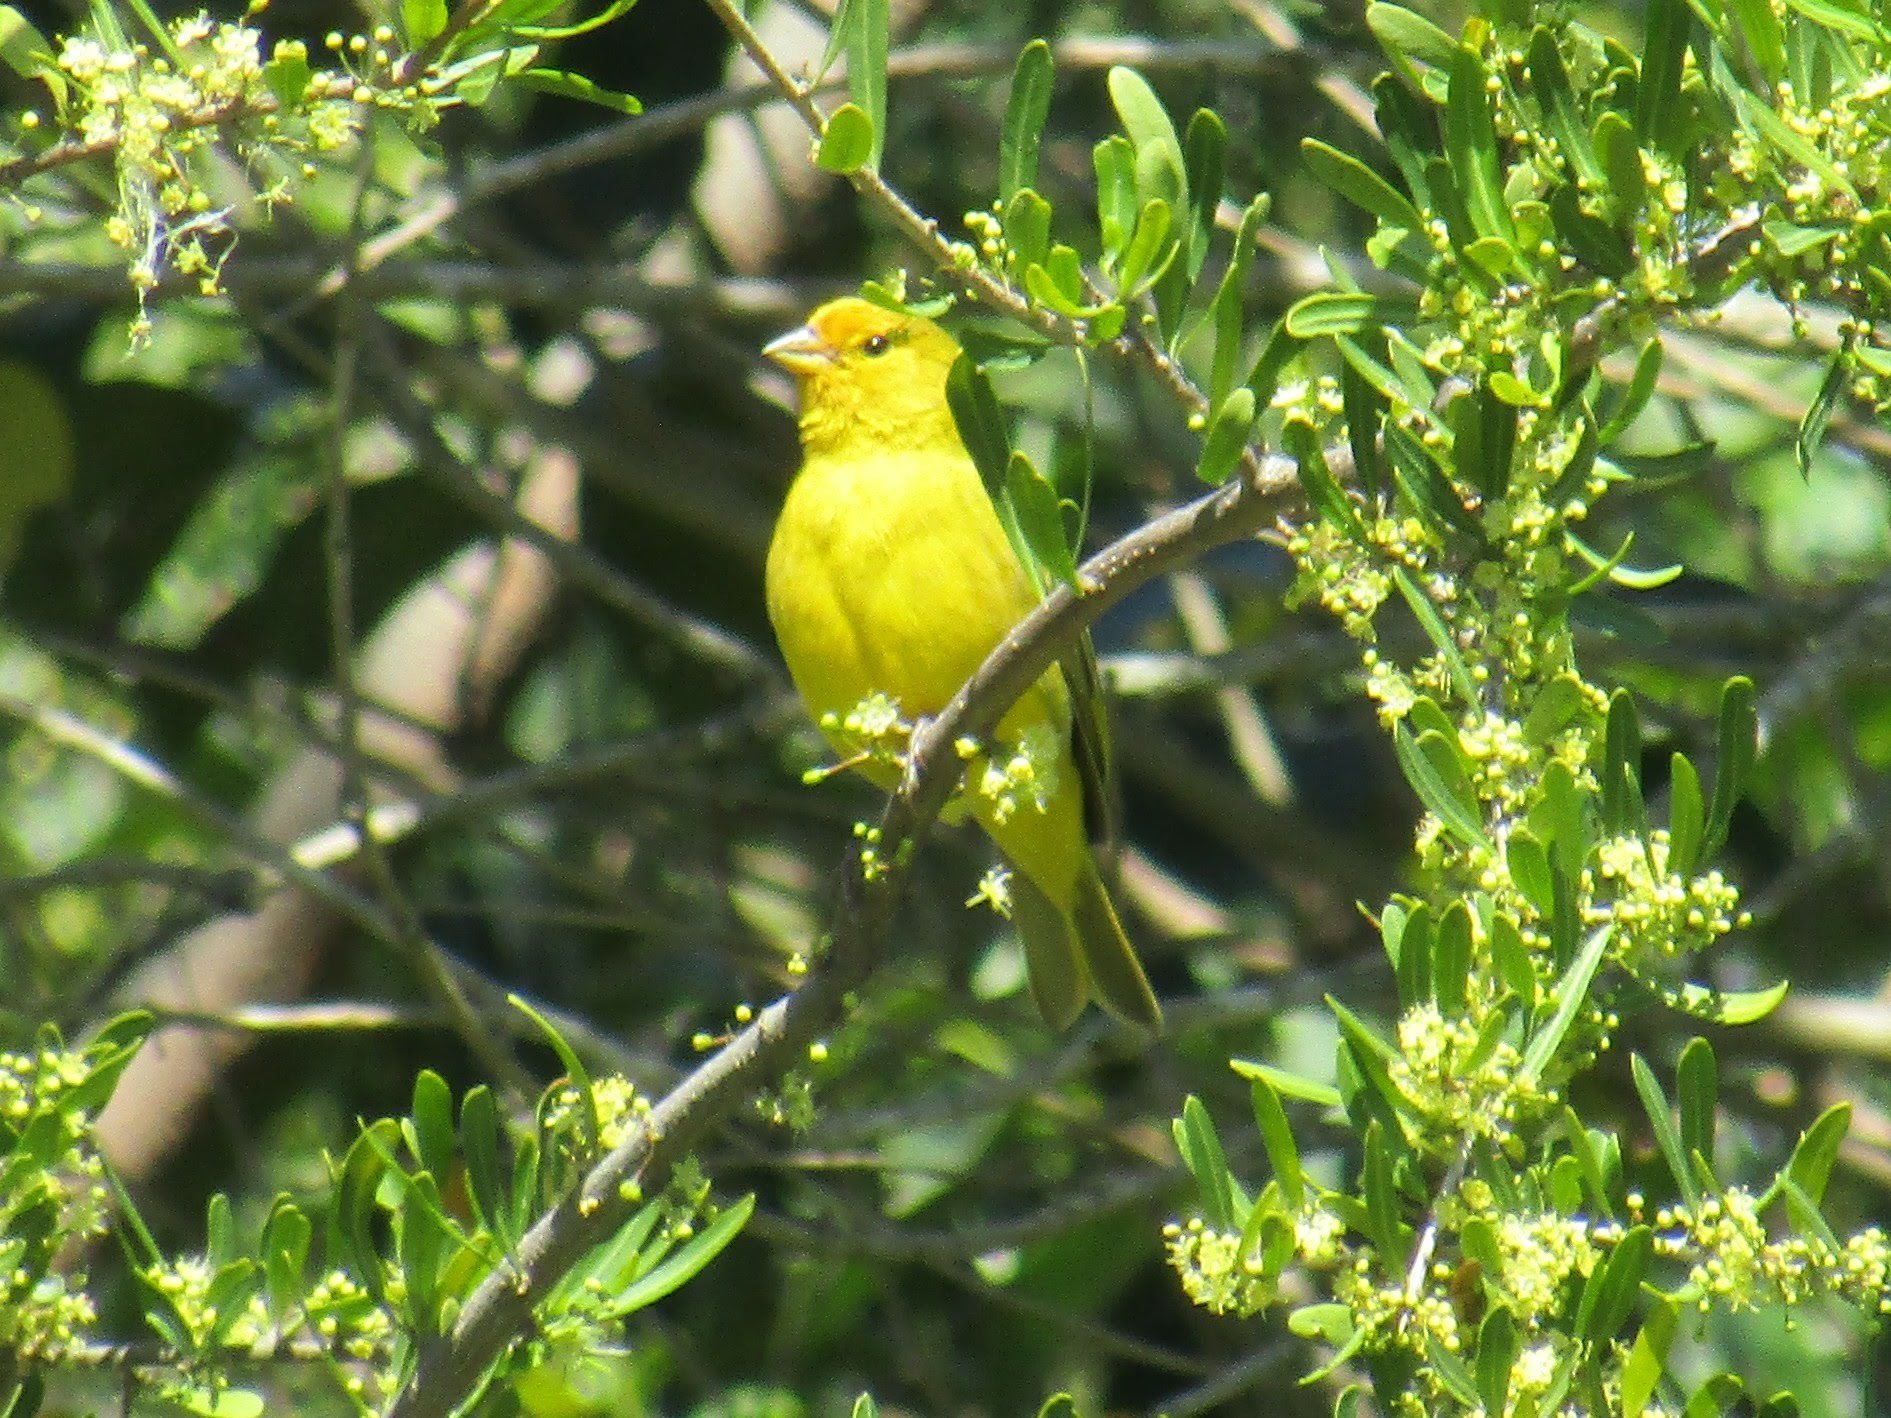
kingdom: Animalia
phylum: Chordata
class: Aves
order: Passeriformes
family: Thraupidae
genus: Sicalis
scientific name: Sicalis flaveola
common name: Saffron finch
